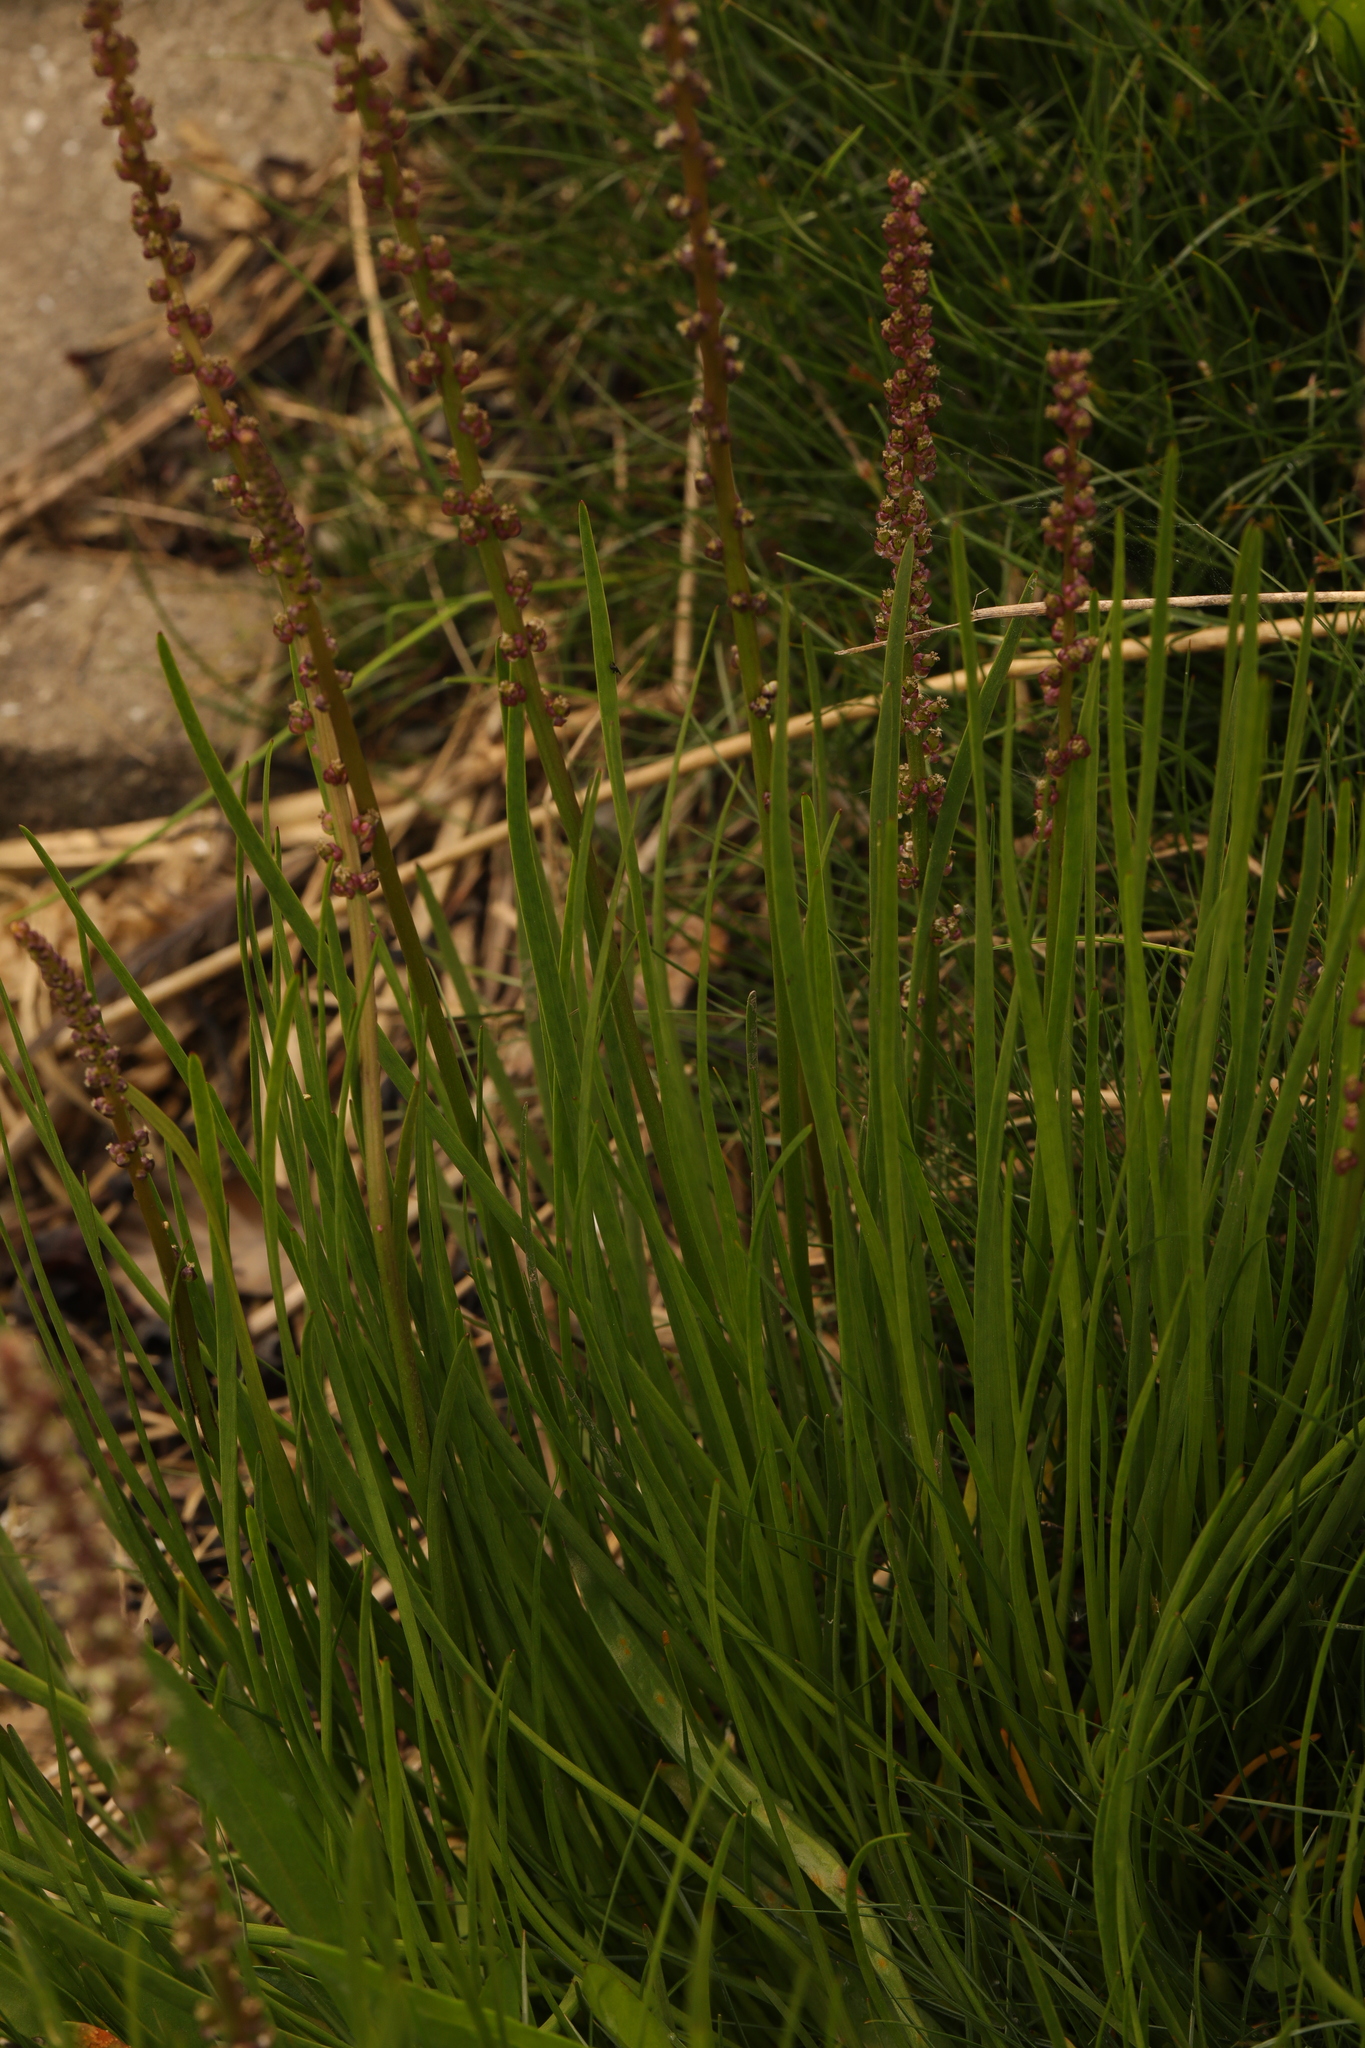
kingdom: Plantae
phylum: Tracheophyta
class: Liliopsida
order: Alismatales
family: Juncaginaceae
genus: Triglochin
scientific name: Triglochin maritima
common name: Sea arrowgrass
